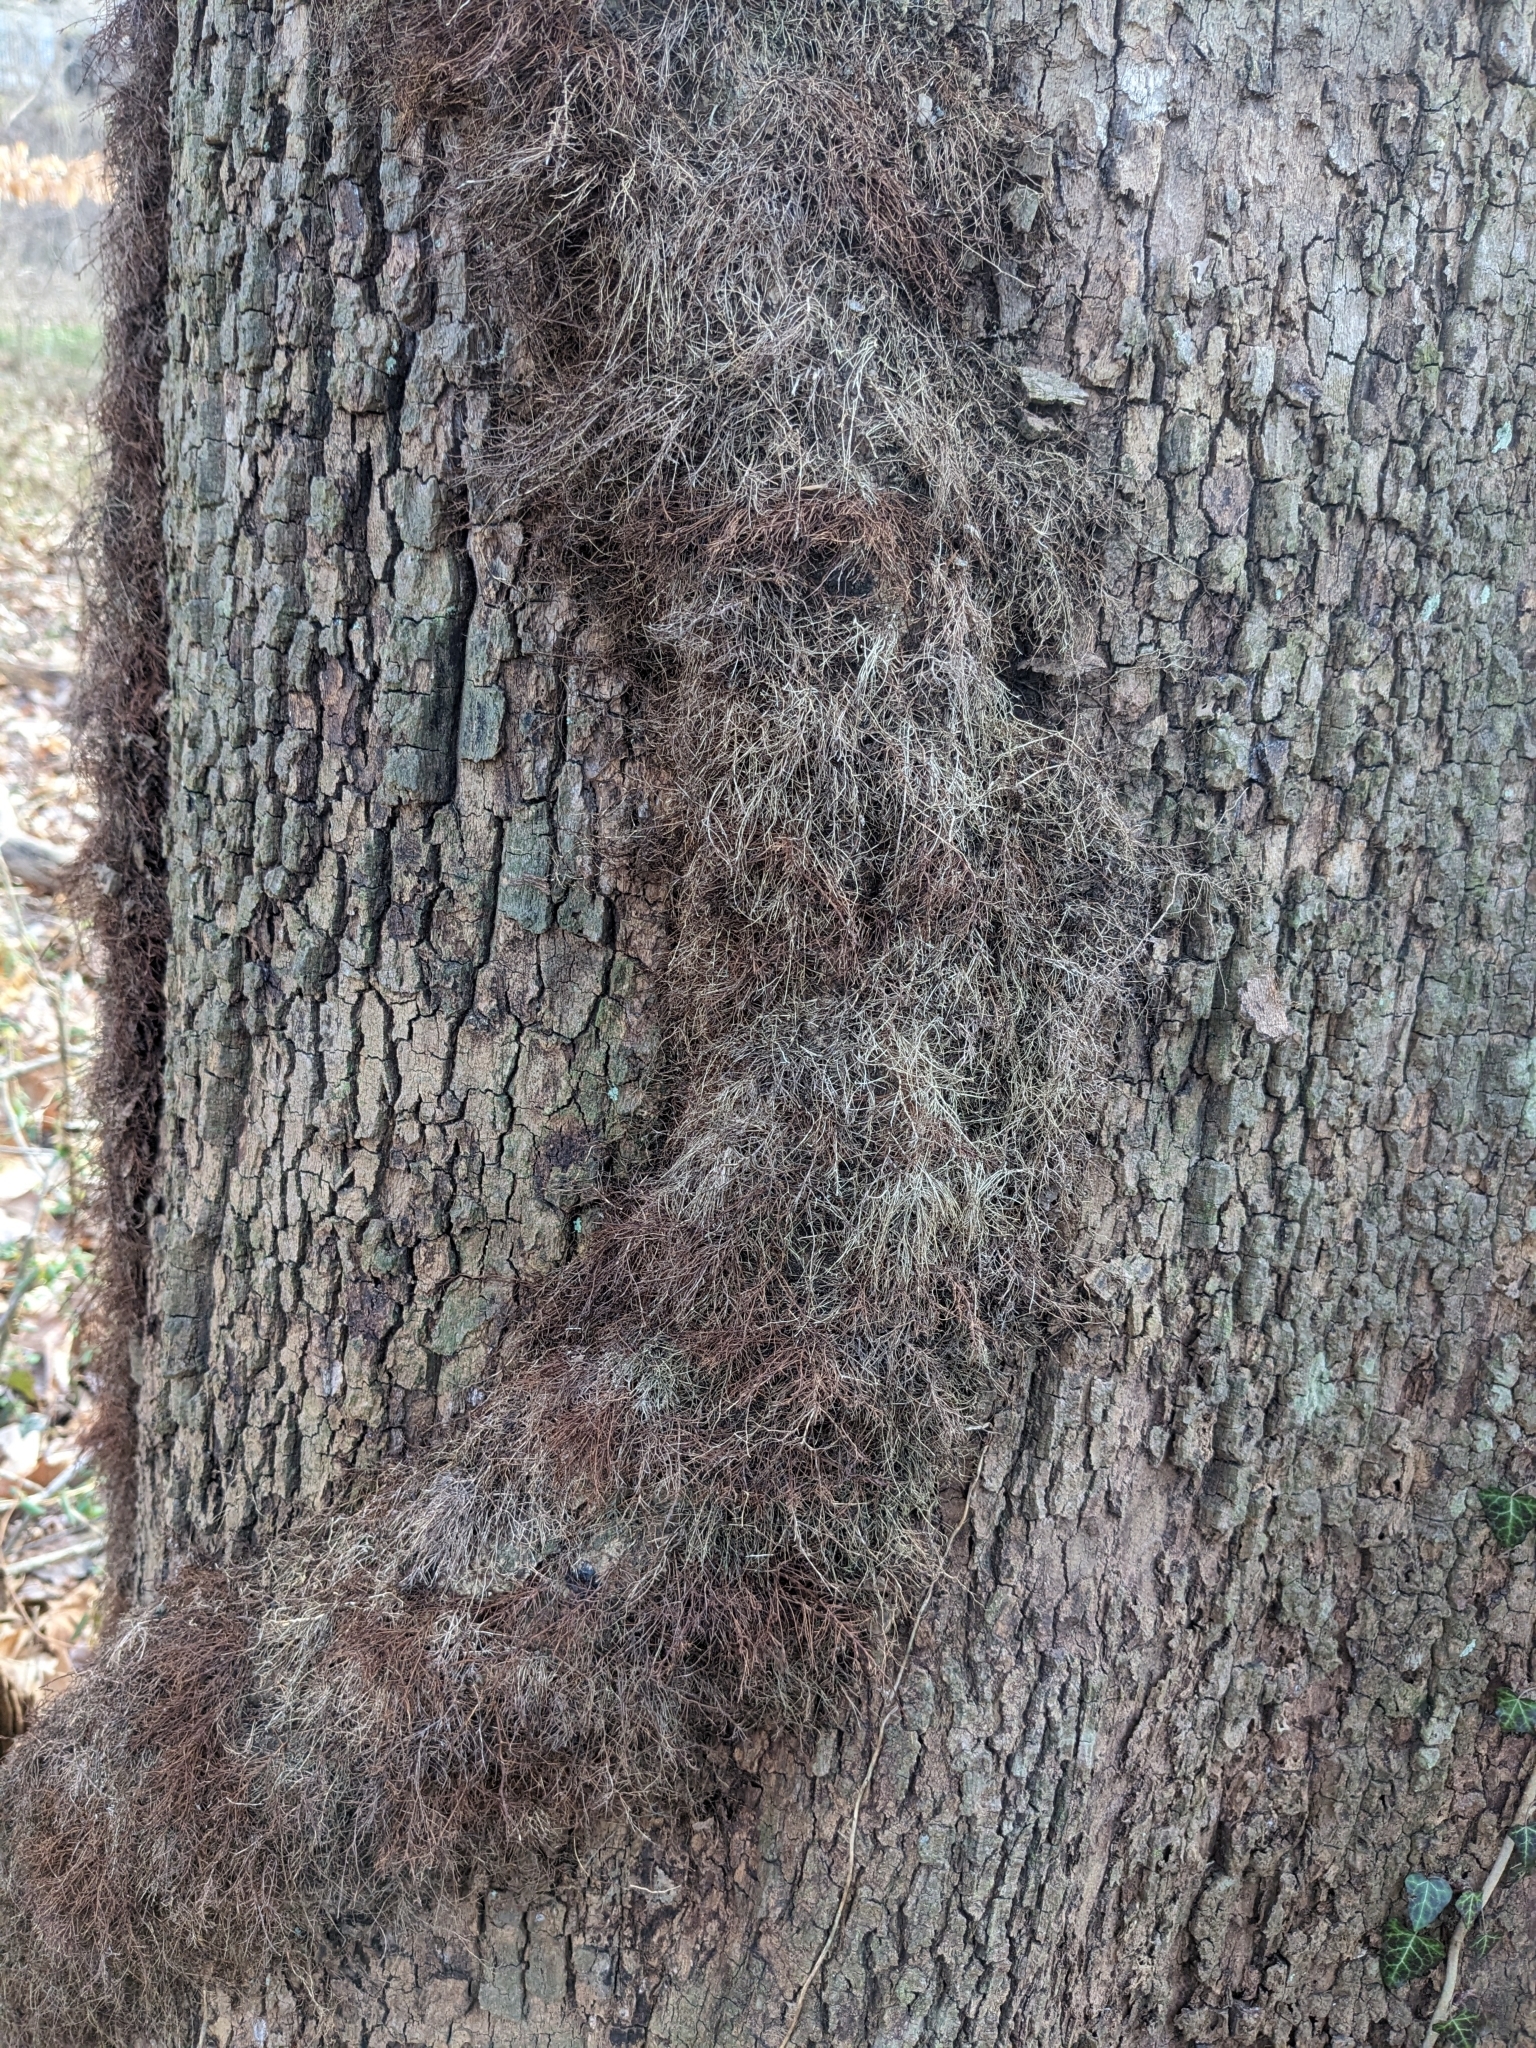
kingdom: Plantae
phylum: Tracheophyta
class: Magnoliopsida
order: Sapindales
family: Anacardiaceae
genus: Toxicodendron
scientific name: Toxicodendron radicans
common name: Poison ivy
